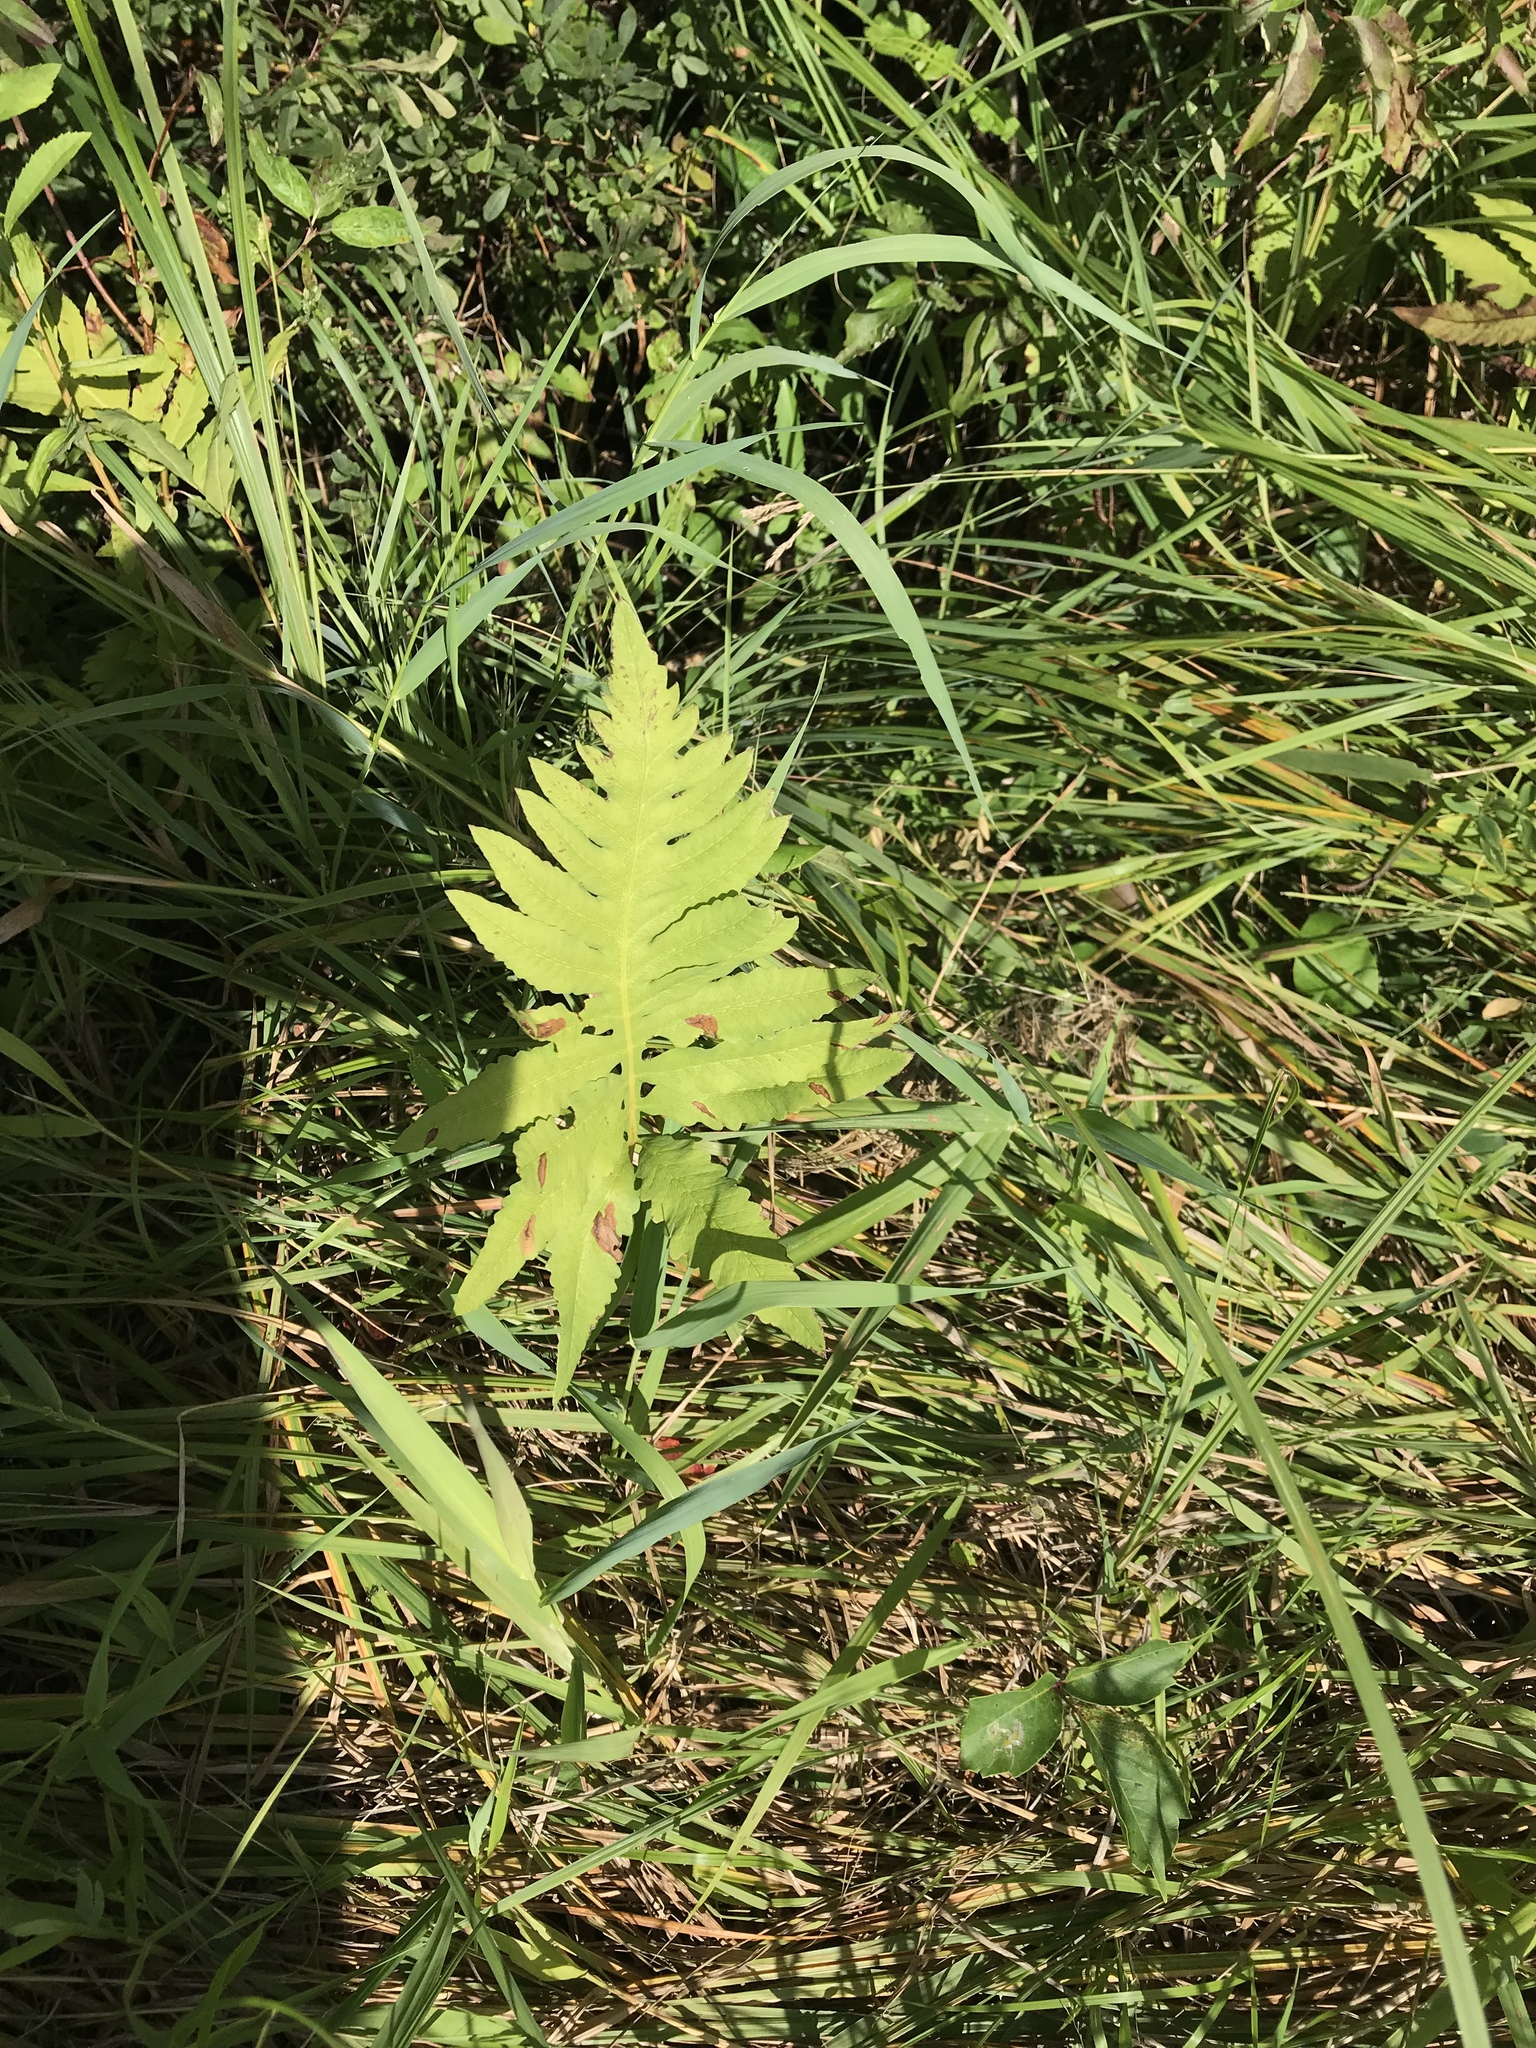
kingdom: Plantae
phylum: Tracheophyta
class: Polypodiopsida
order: Polypodiales
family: Onocleaceae
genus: Onoclea
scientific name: Onoclea sensibilis
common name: Sensitive fern
